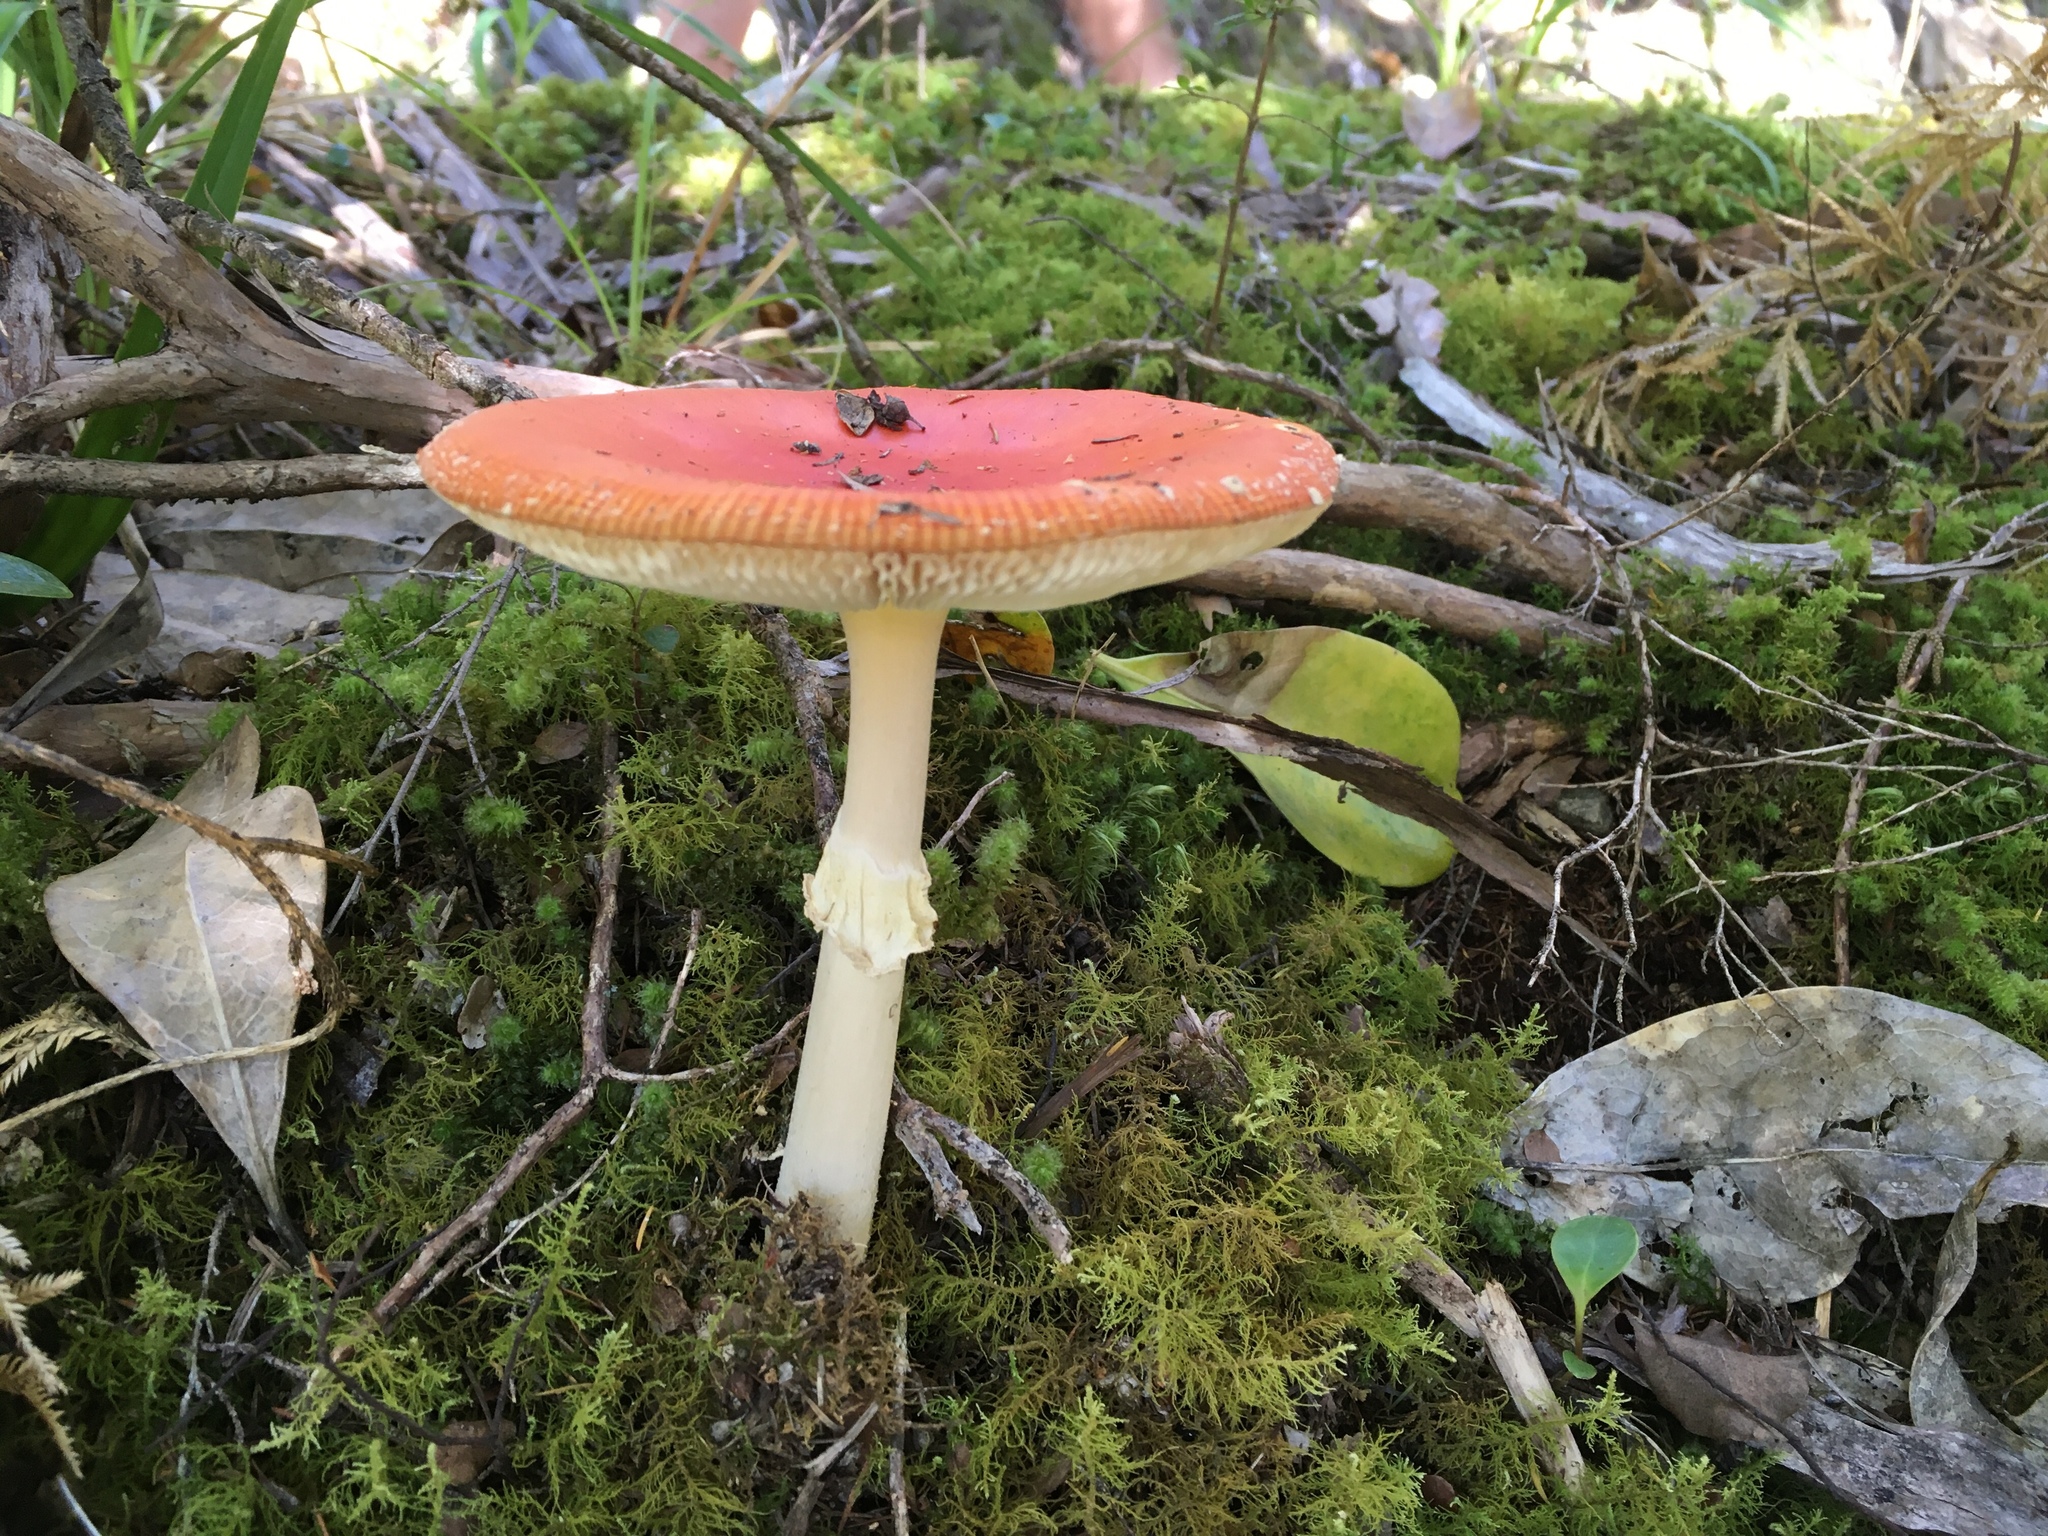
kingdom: Fungi
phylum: Basidiomycota
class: Agaricomycetes
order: Agaricales
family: Amanitaceae
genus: Amanita
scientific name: Amanita muscaria
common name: Fly agaric
